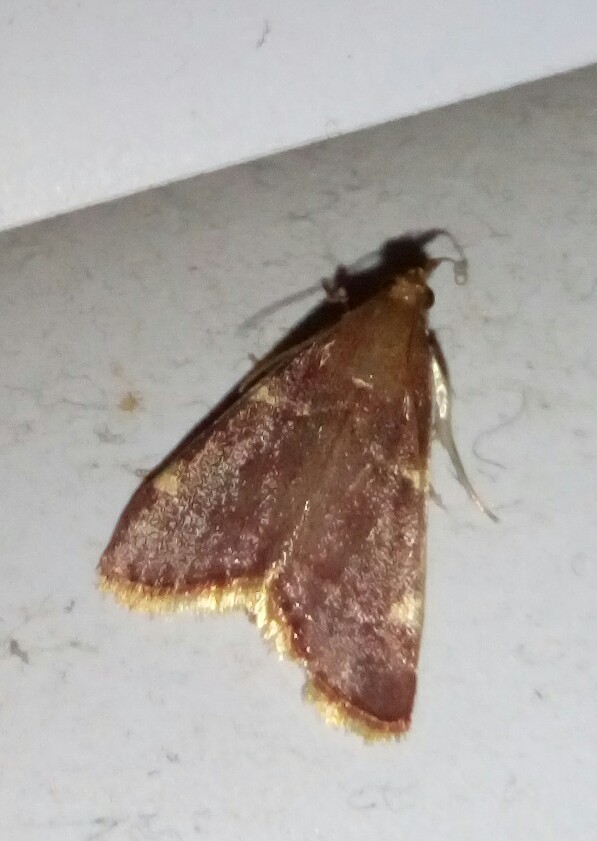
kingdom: Animalia
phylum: Arthropoda
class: Insecta
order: Lepidoptera
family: Pyralidae
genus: Hypsopygia
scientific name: Hypsopygia olinalis
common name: Yellow-fringed dolichomia moth
